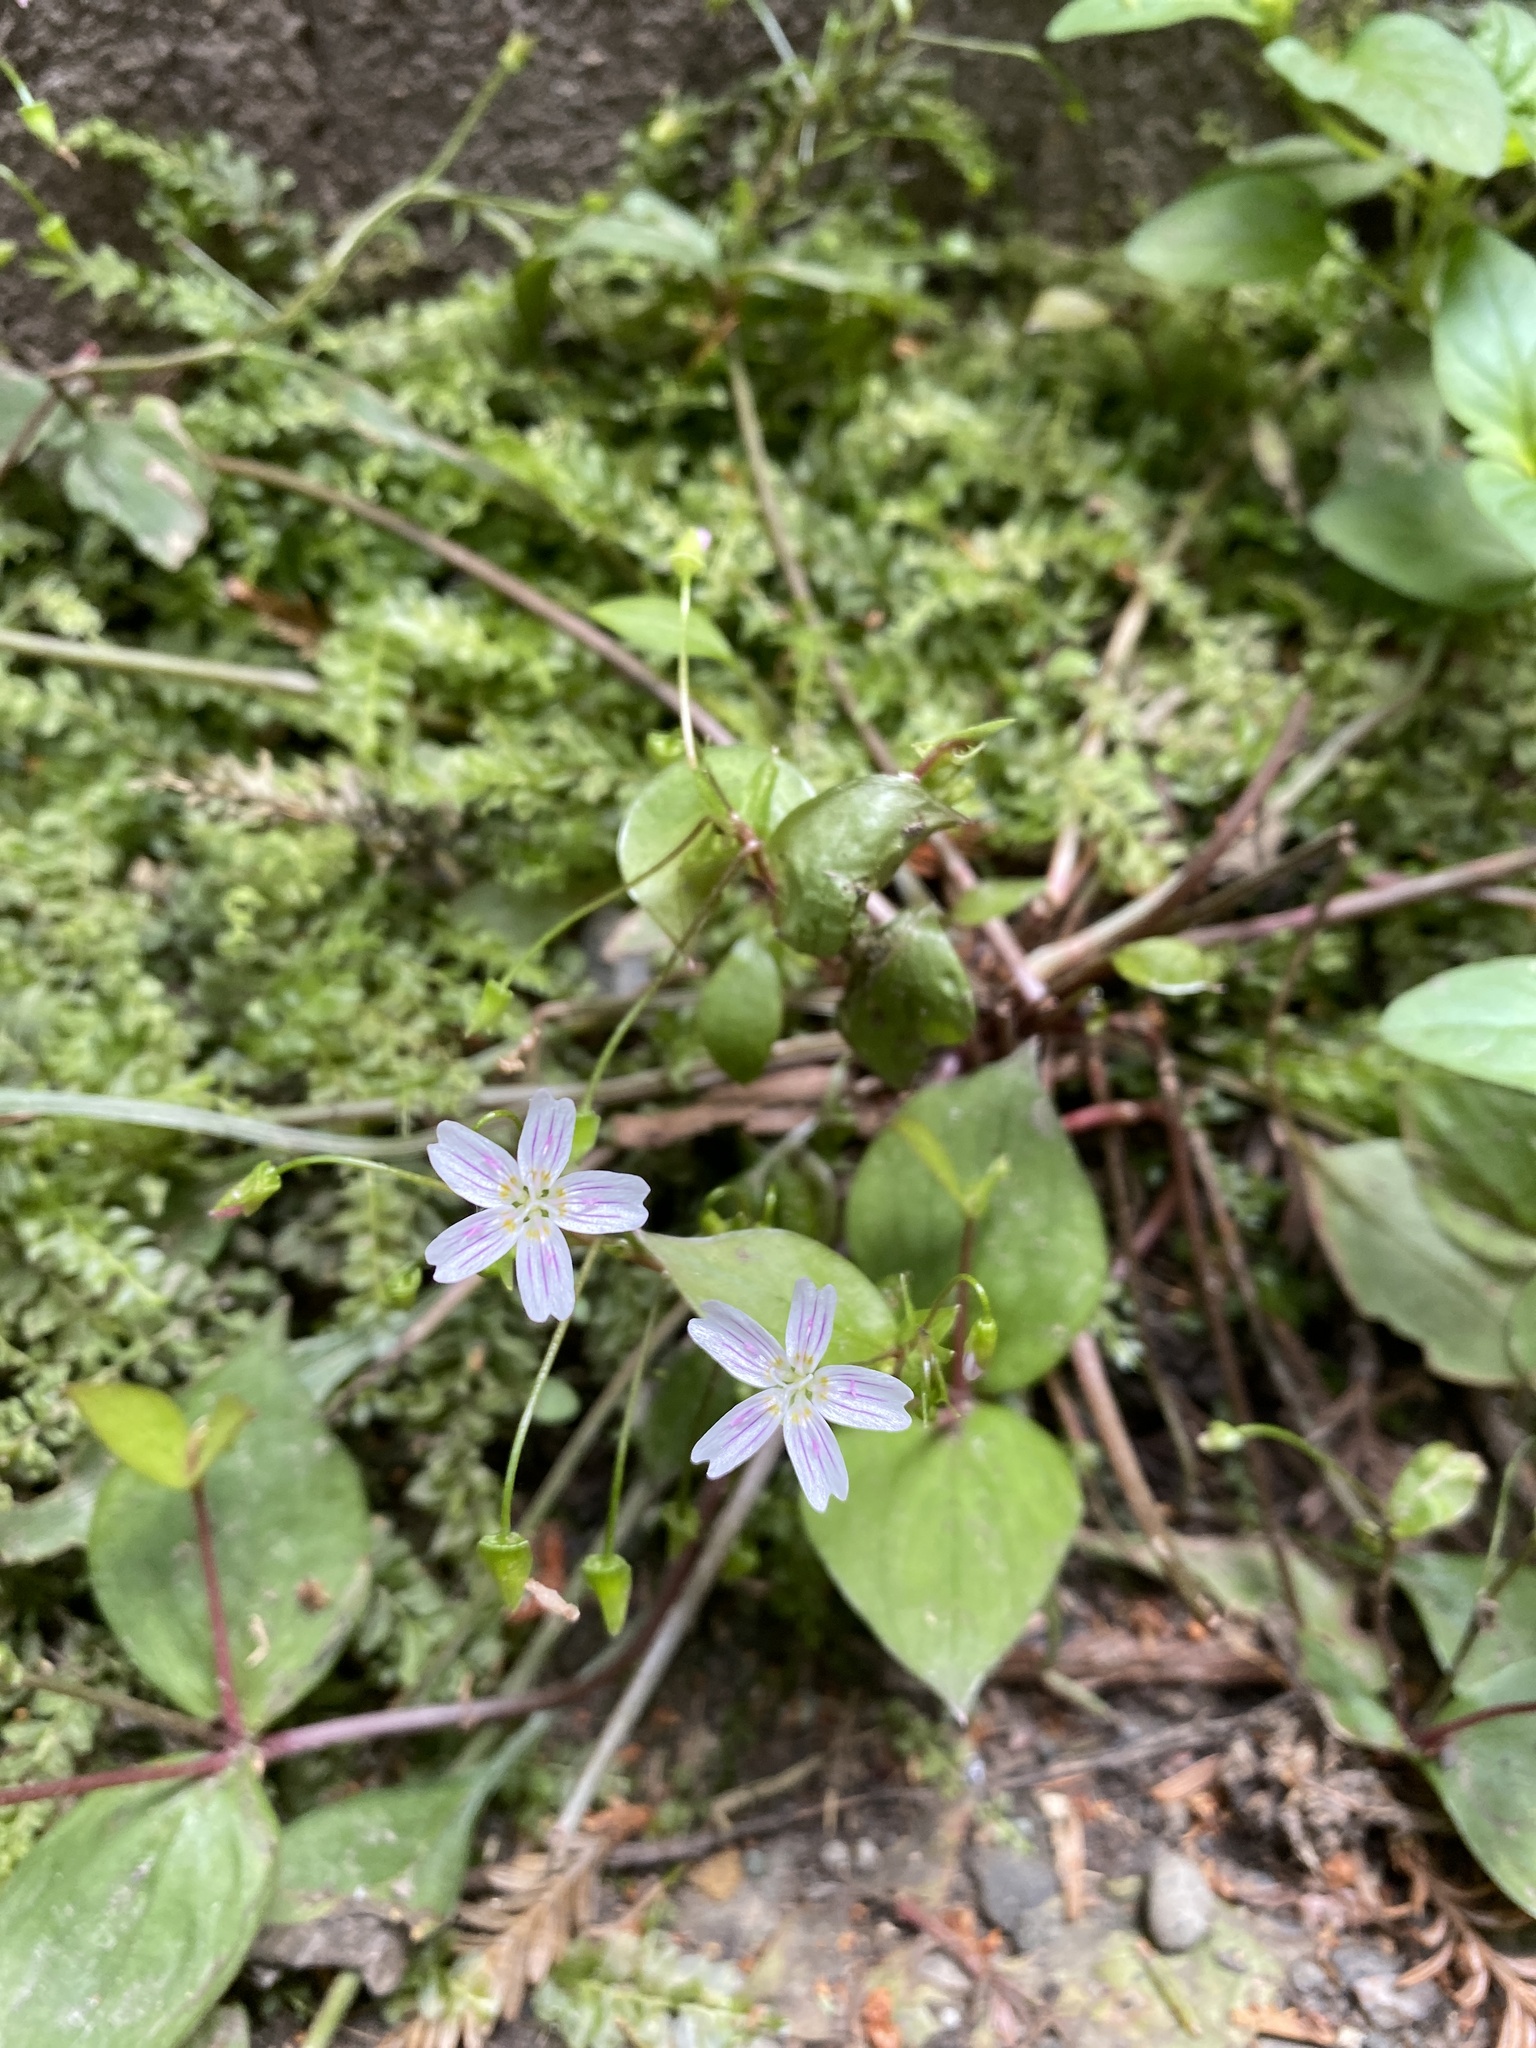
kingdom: Plantae
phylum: Tracheophyta
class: Magnoliopsida
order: Caryophyllales
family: Montiaceae
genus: Claytonia
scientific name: Claytonia sibirica
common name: Pink purslane
